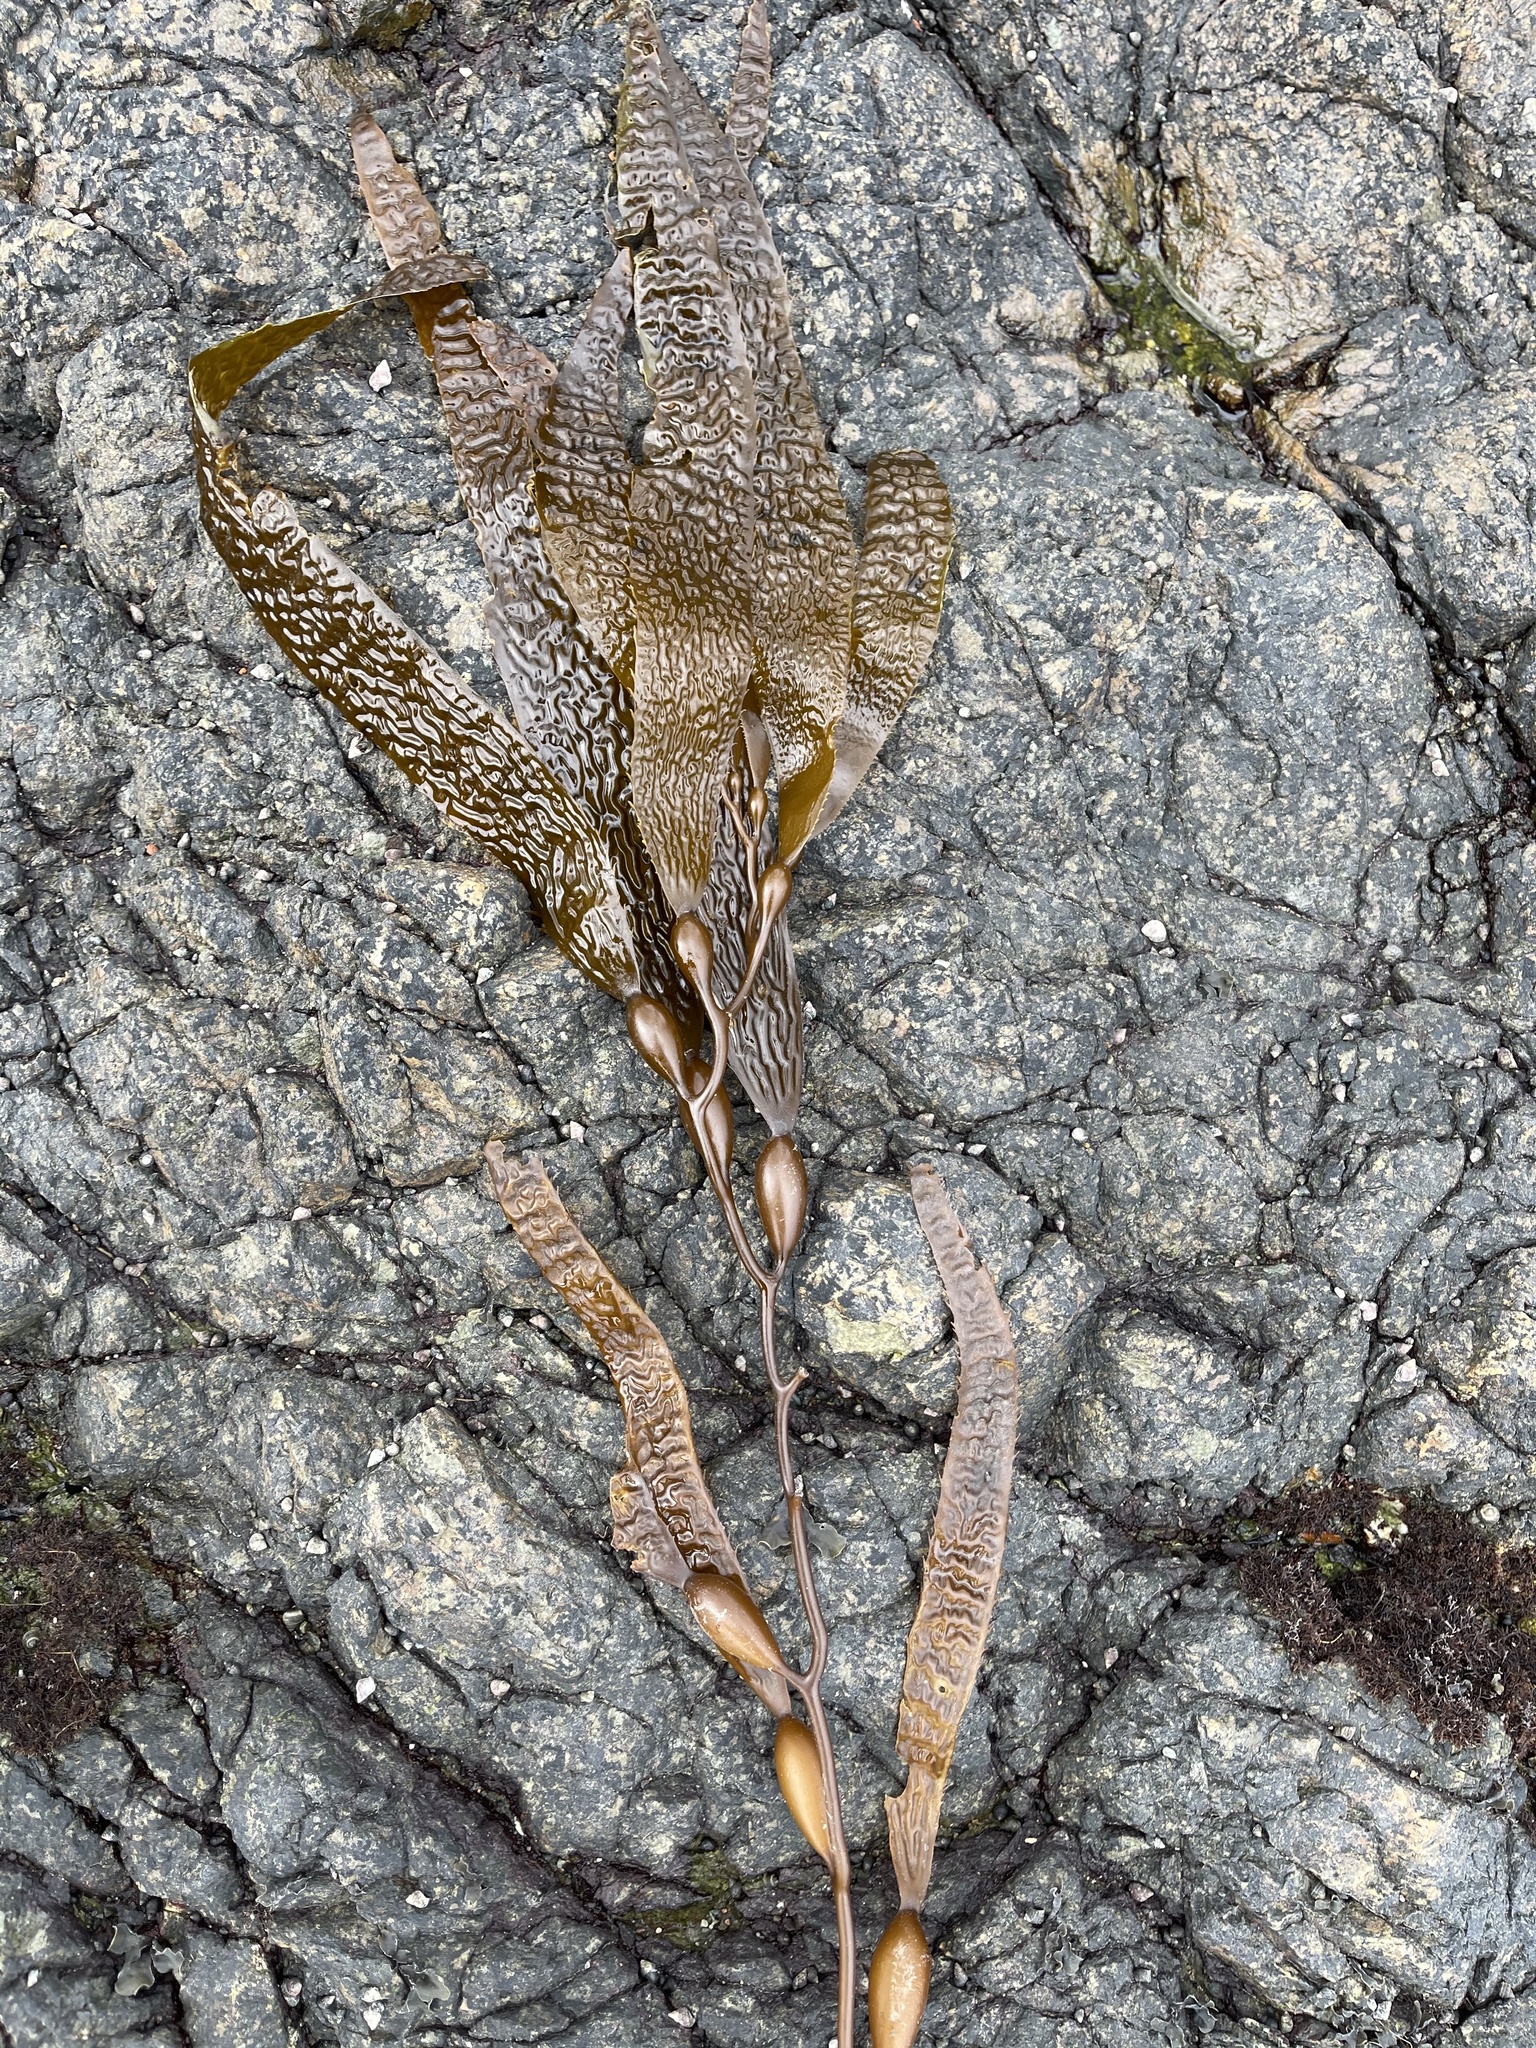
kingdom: Chromista
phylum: Ochrophyta
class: Phaeophyceae
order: Laminariales
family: Laminariaceae
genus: Macrocystis
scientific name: Macrocystis pyrifera
